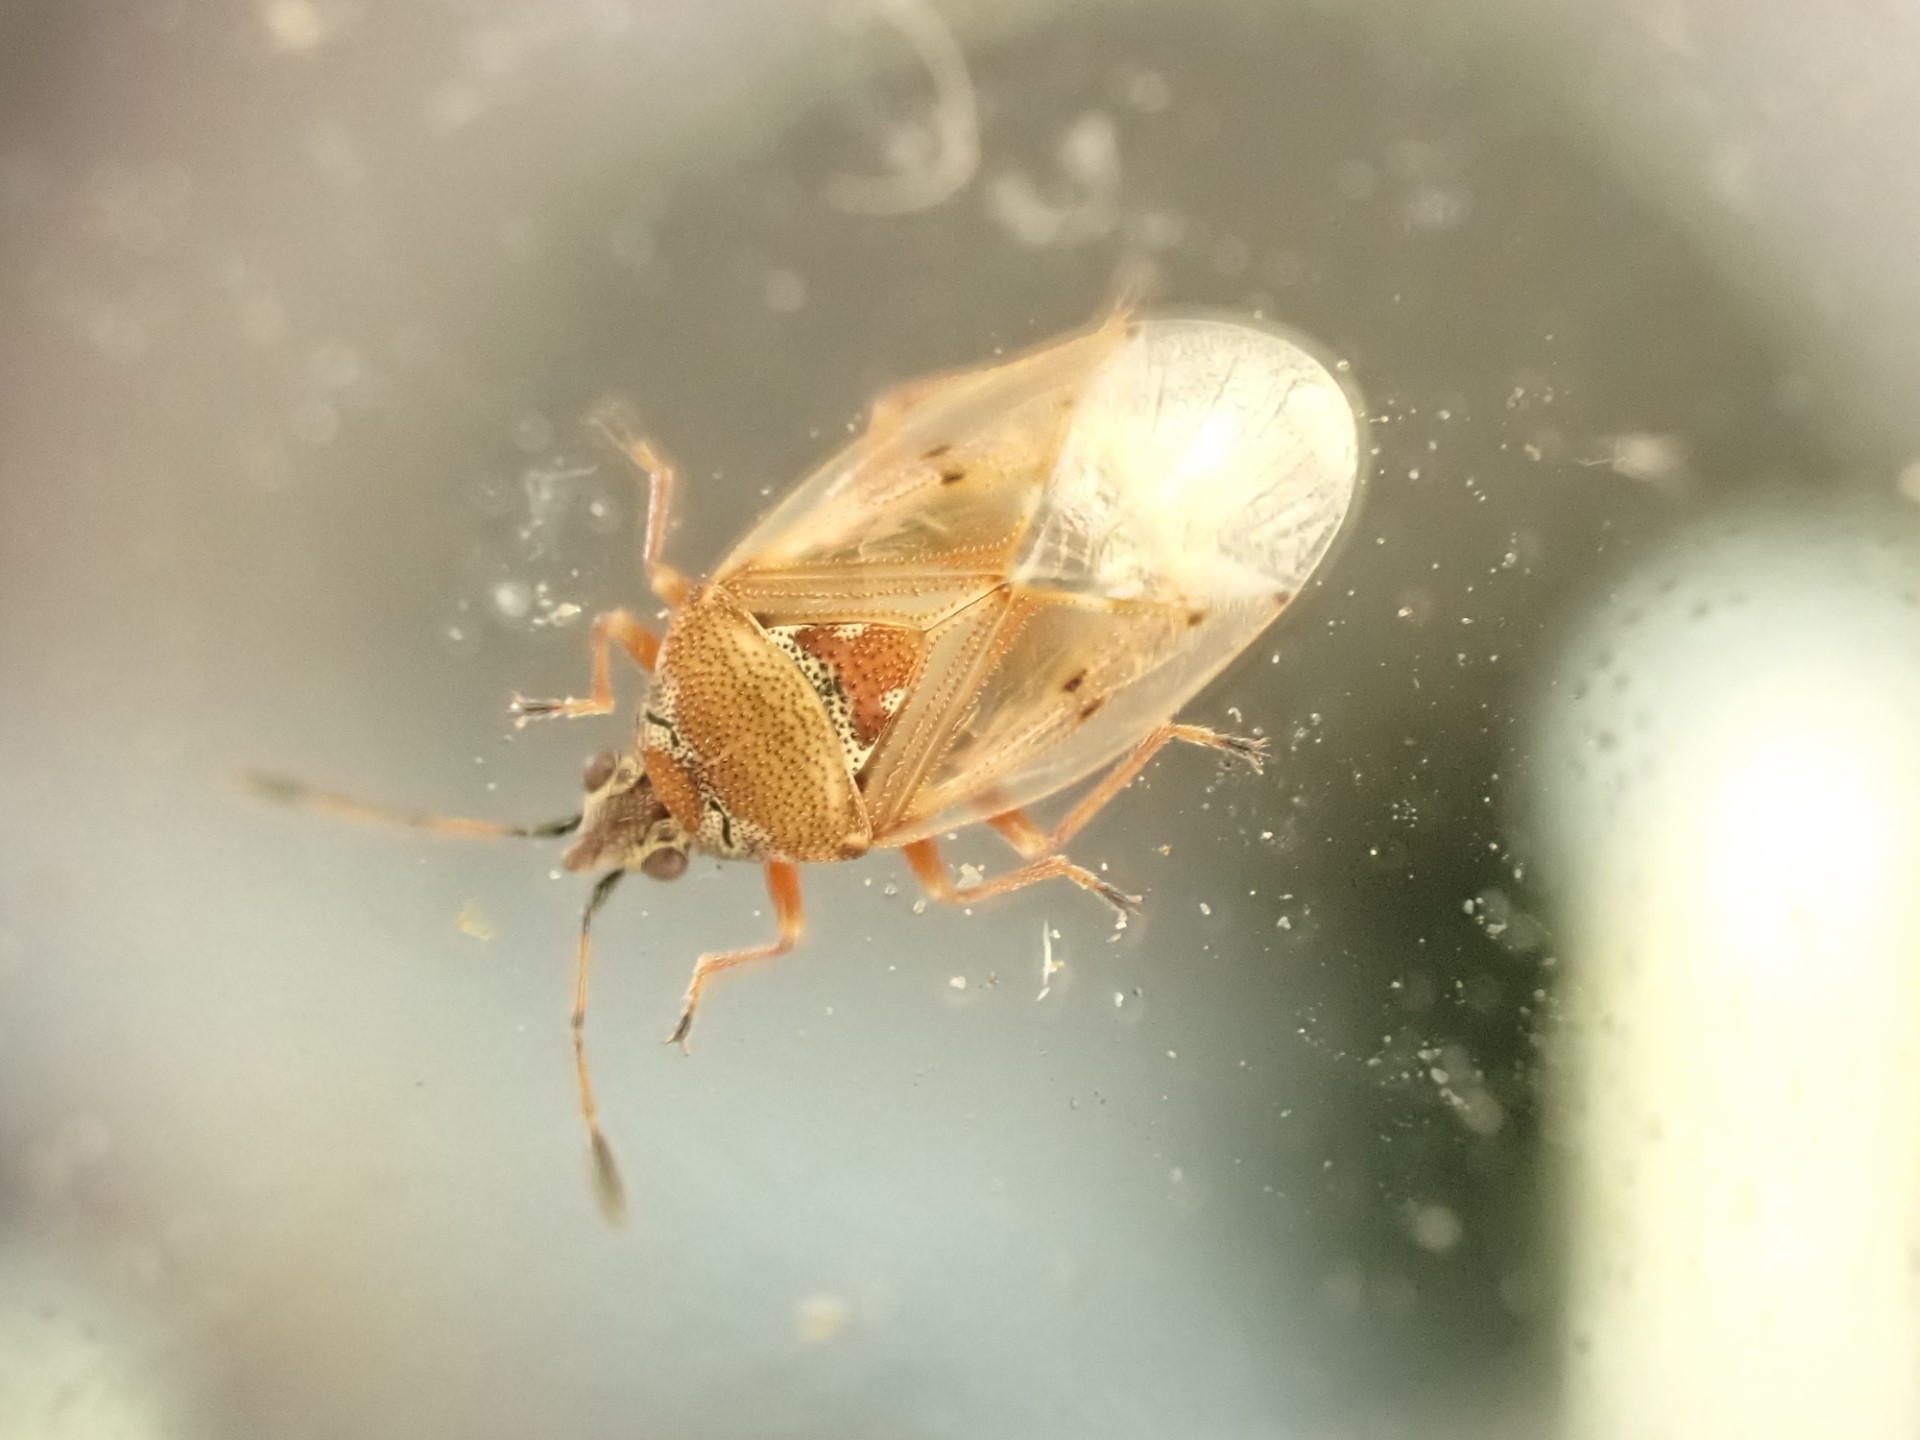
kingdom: Animalia
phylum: Arthropoda
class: Insecta
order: Hemiptera
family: Lygaeidae
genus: Kleidocerys
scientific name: Kleidocerys resedae
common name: Birch catkin bug
